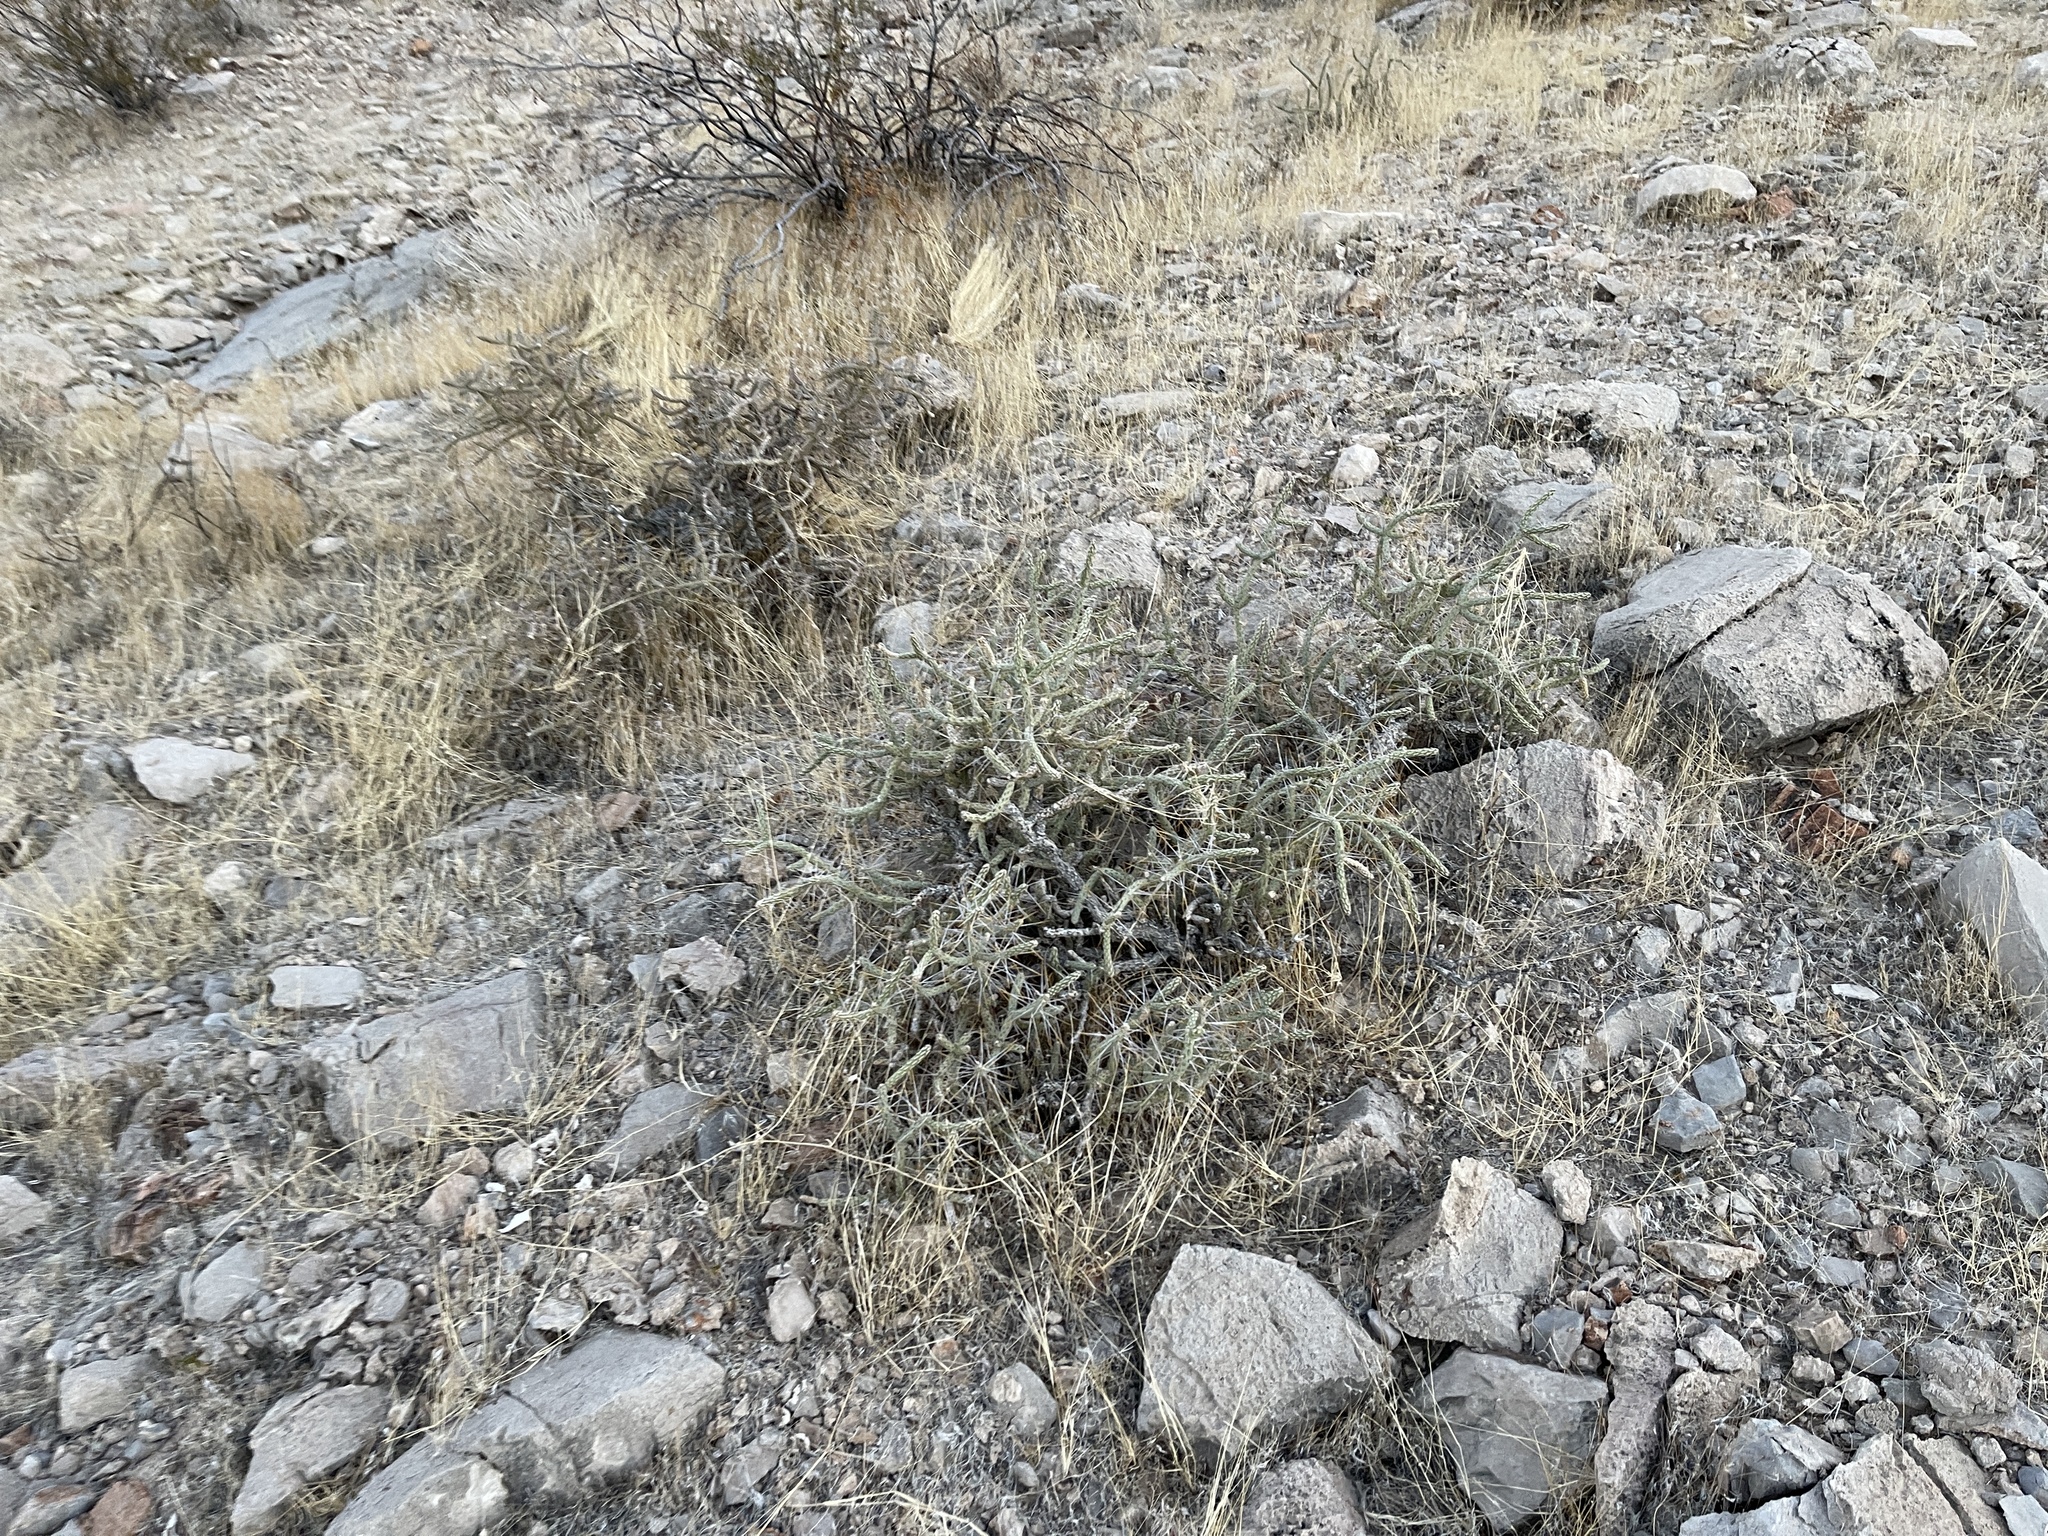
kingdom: Plantae
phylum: Tracheophyta
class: Magnoliopsida
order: Caryophyllales
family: Cactaceae
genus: Cylindropuntia
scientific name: Cylindropuntia ramosissima
